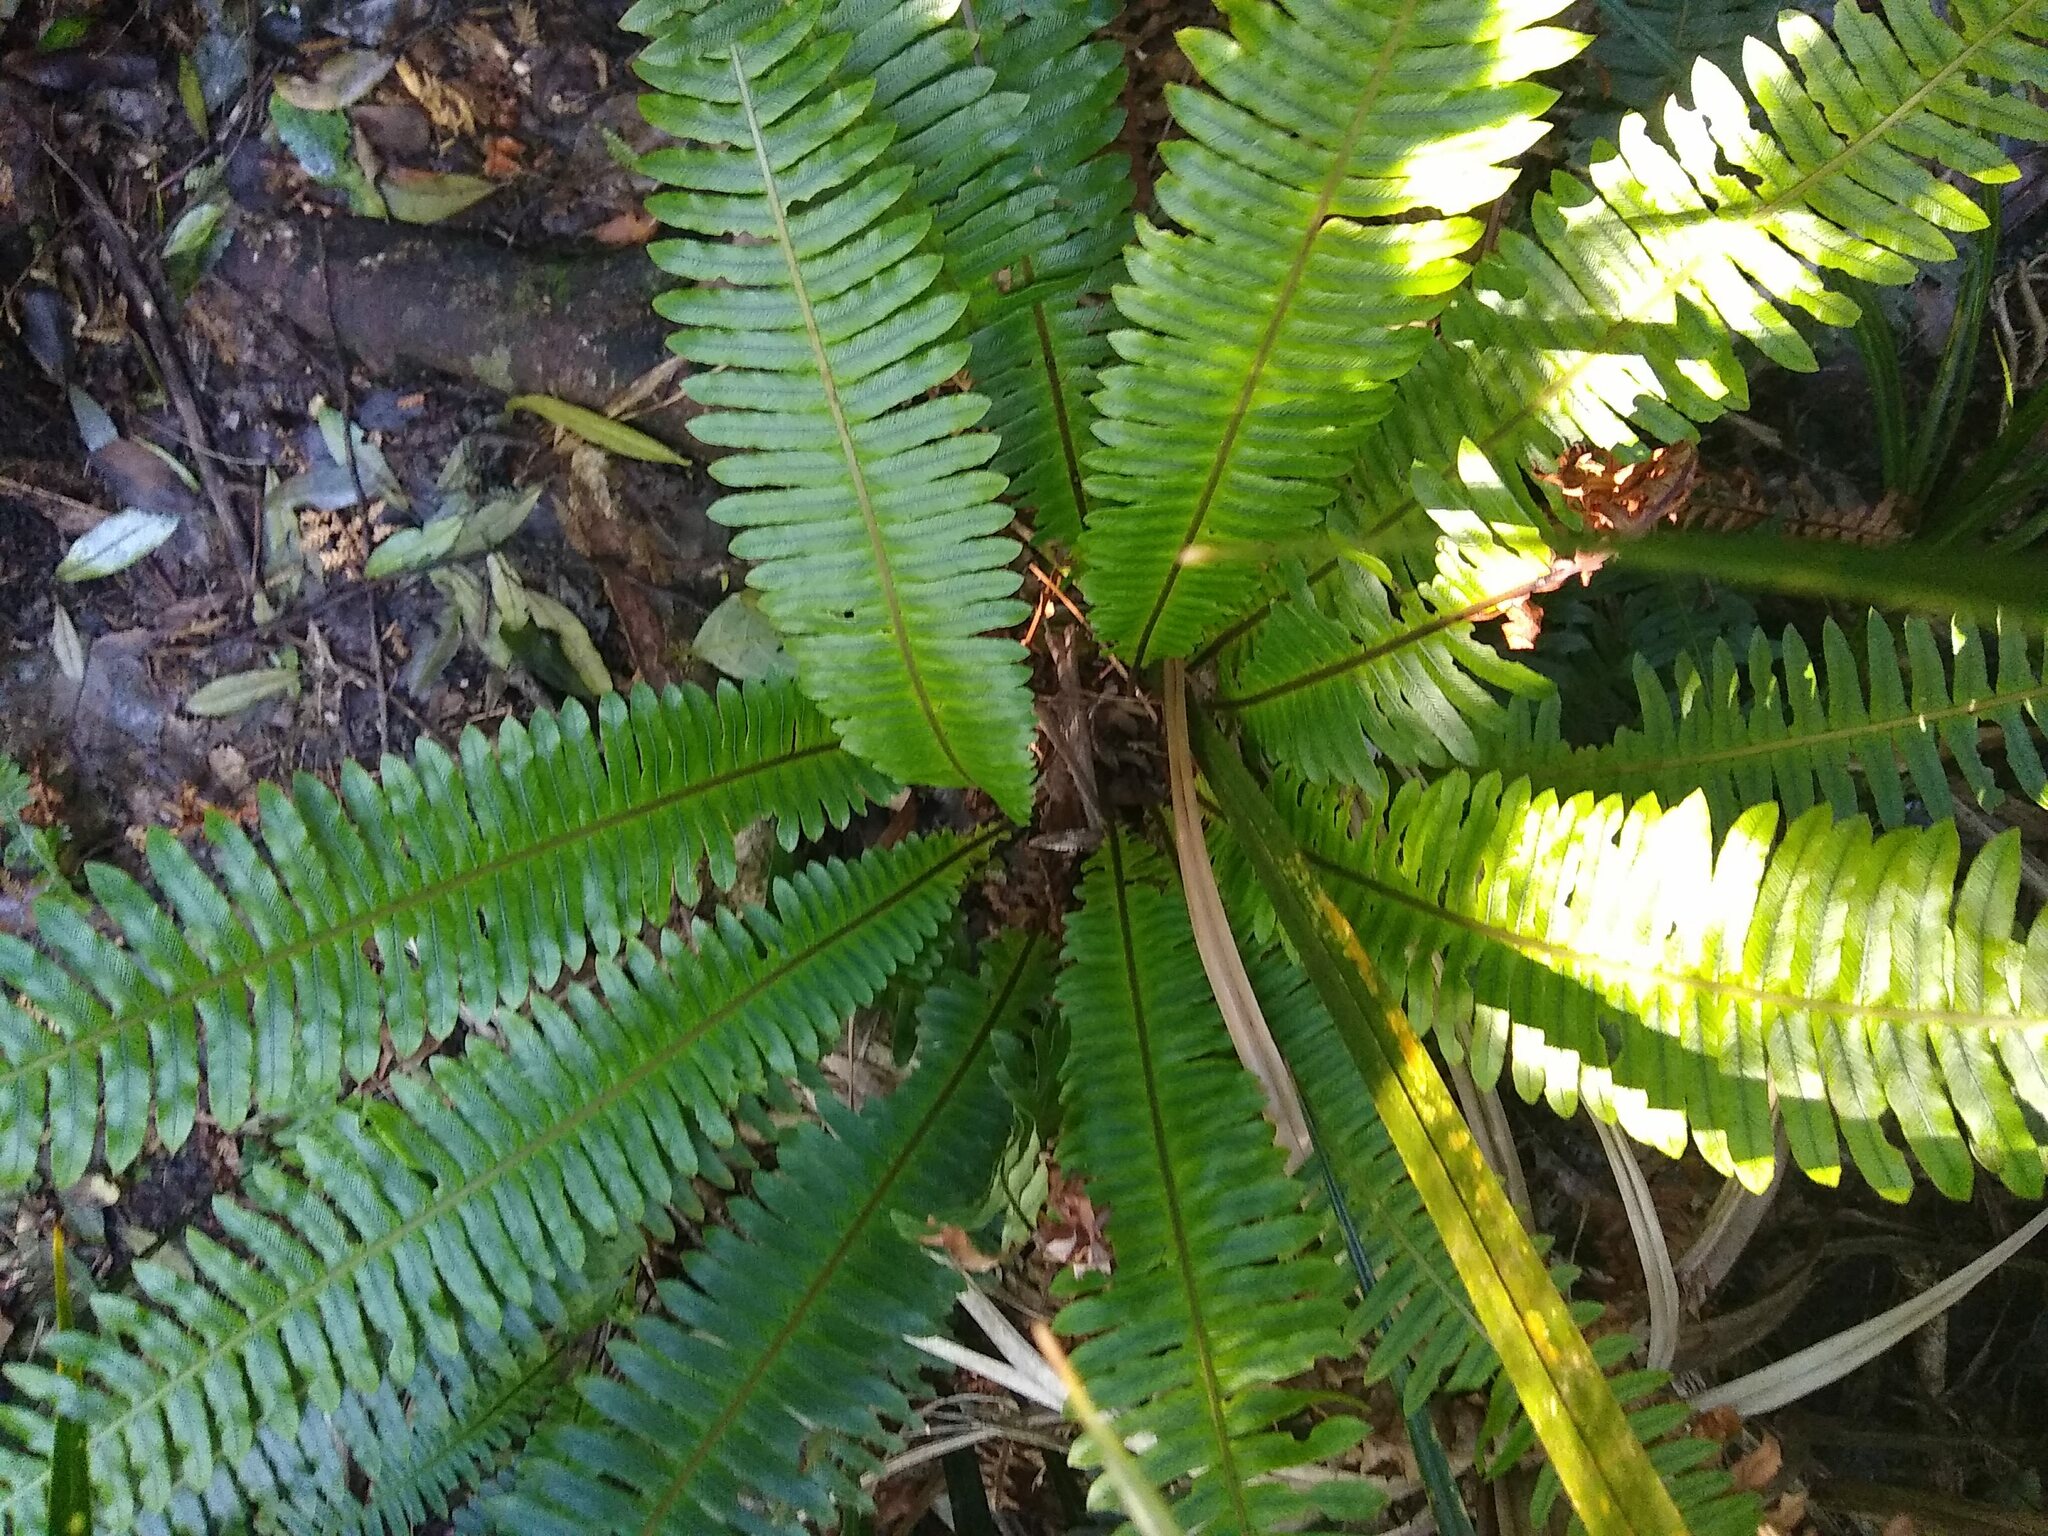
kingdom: Plantae
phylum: Tracheophyta
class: Polypodiopsida
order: Polypodiales
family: Blechnaceae
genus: Lomaria
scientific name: Lomaria discolor
